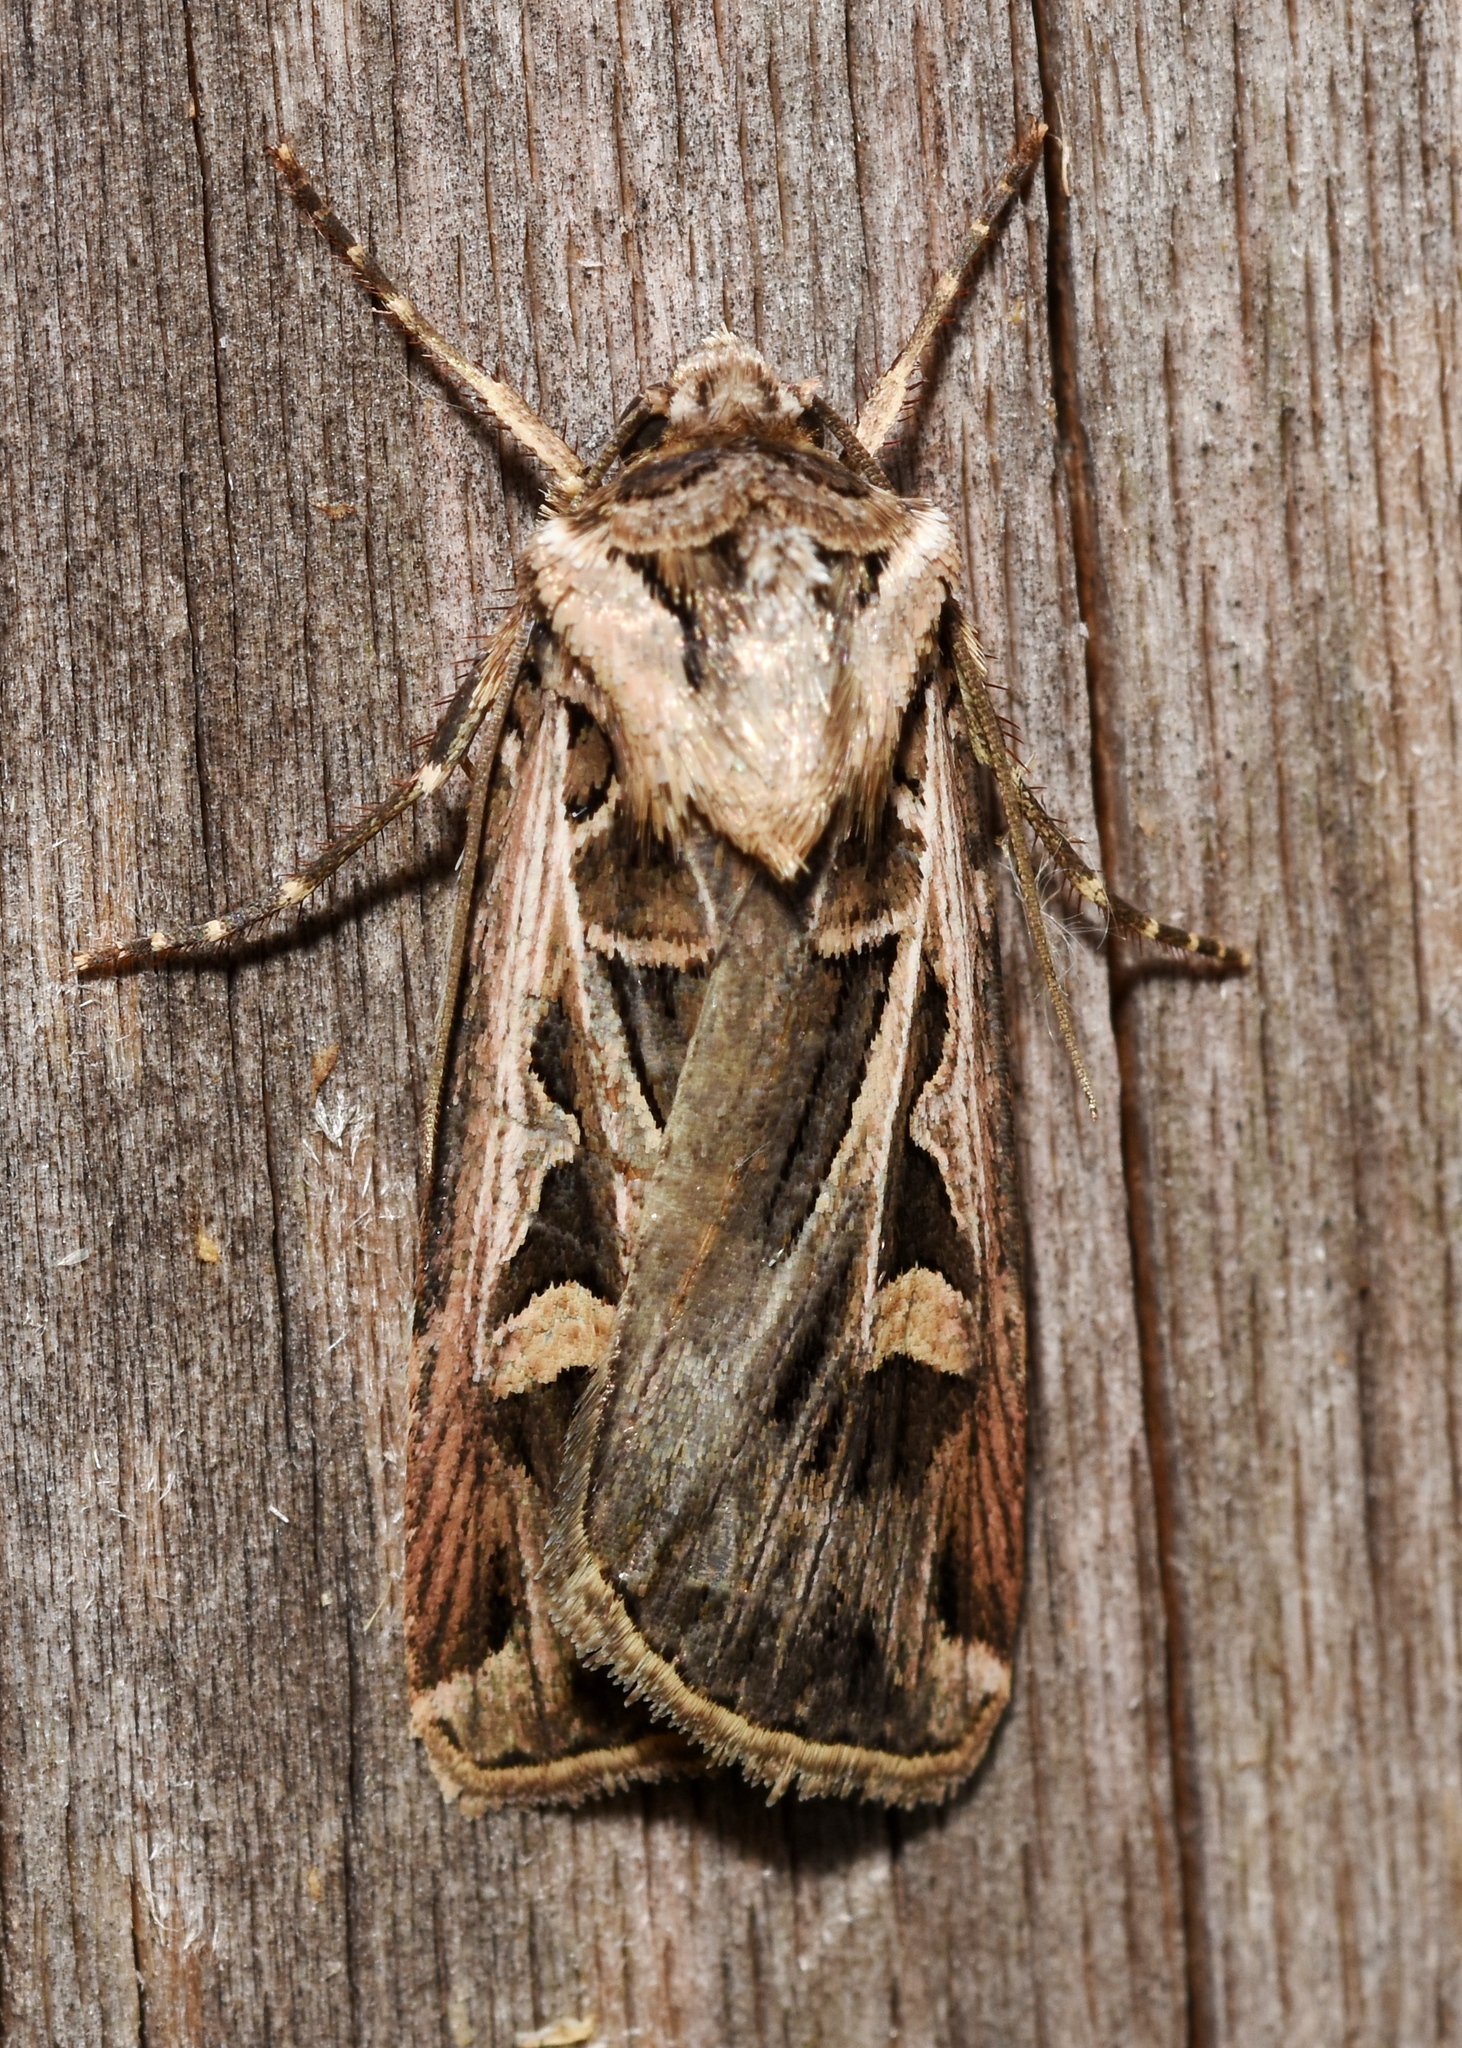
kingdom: Animalia
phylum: Arthropoda
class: Insecta
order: Lepidoptera
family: Noctuidae
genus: Feltia
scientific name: Feltia jaculifera
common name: Dingy cutworm moth
